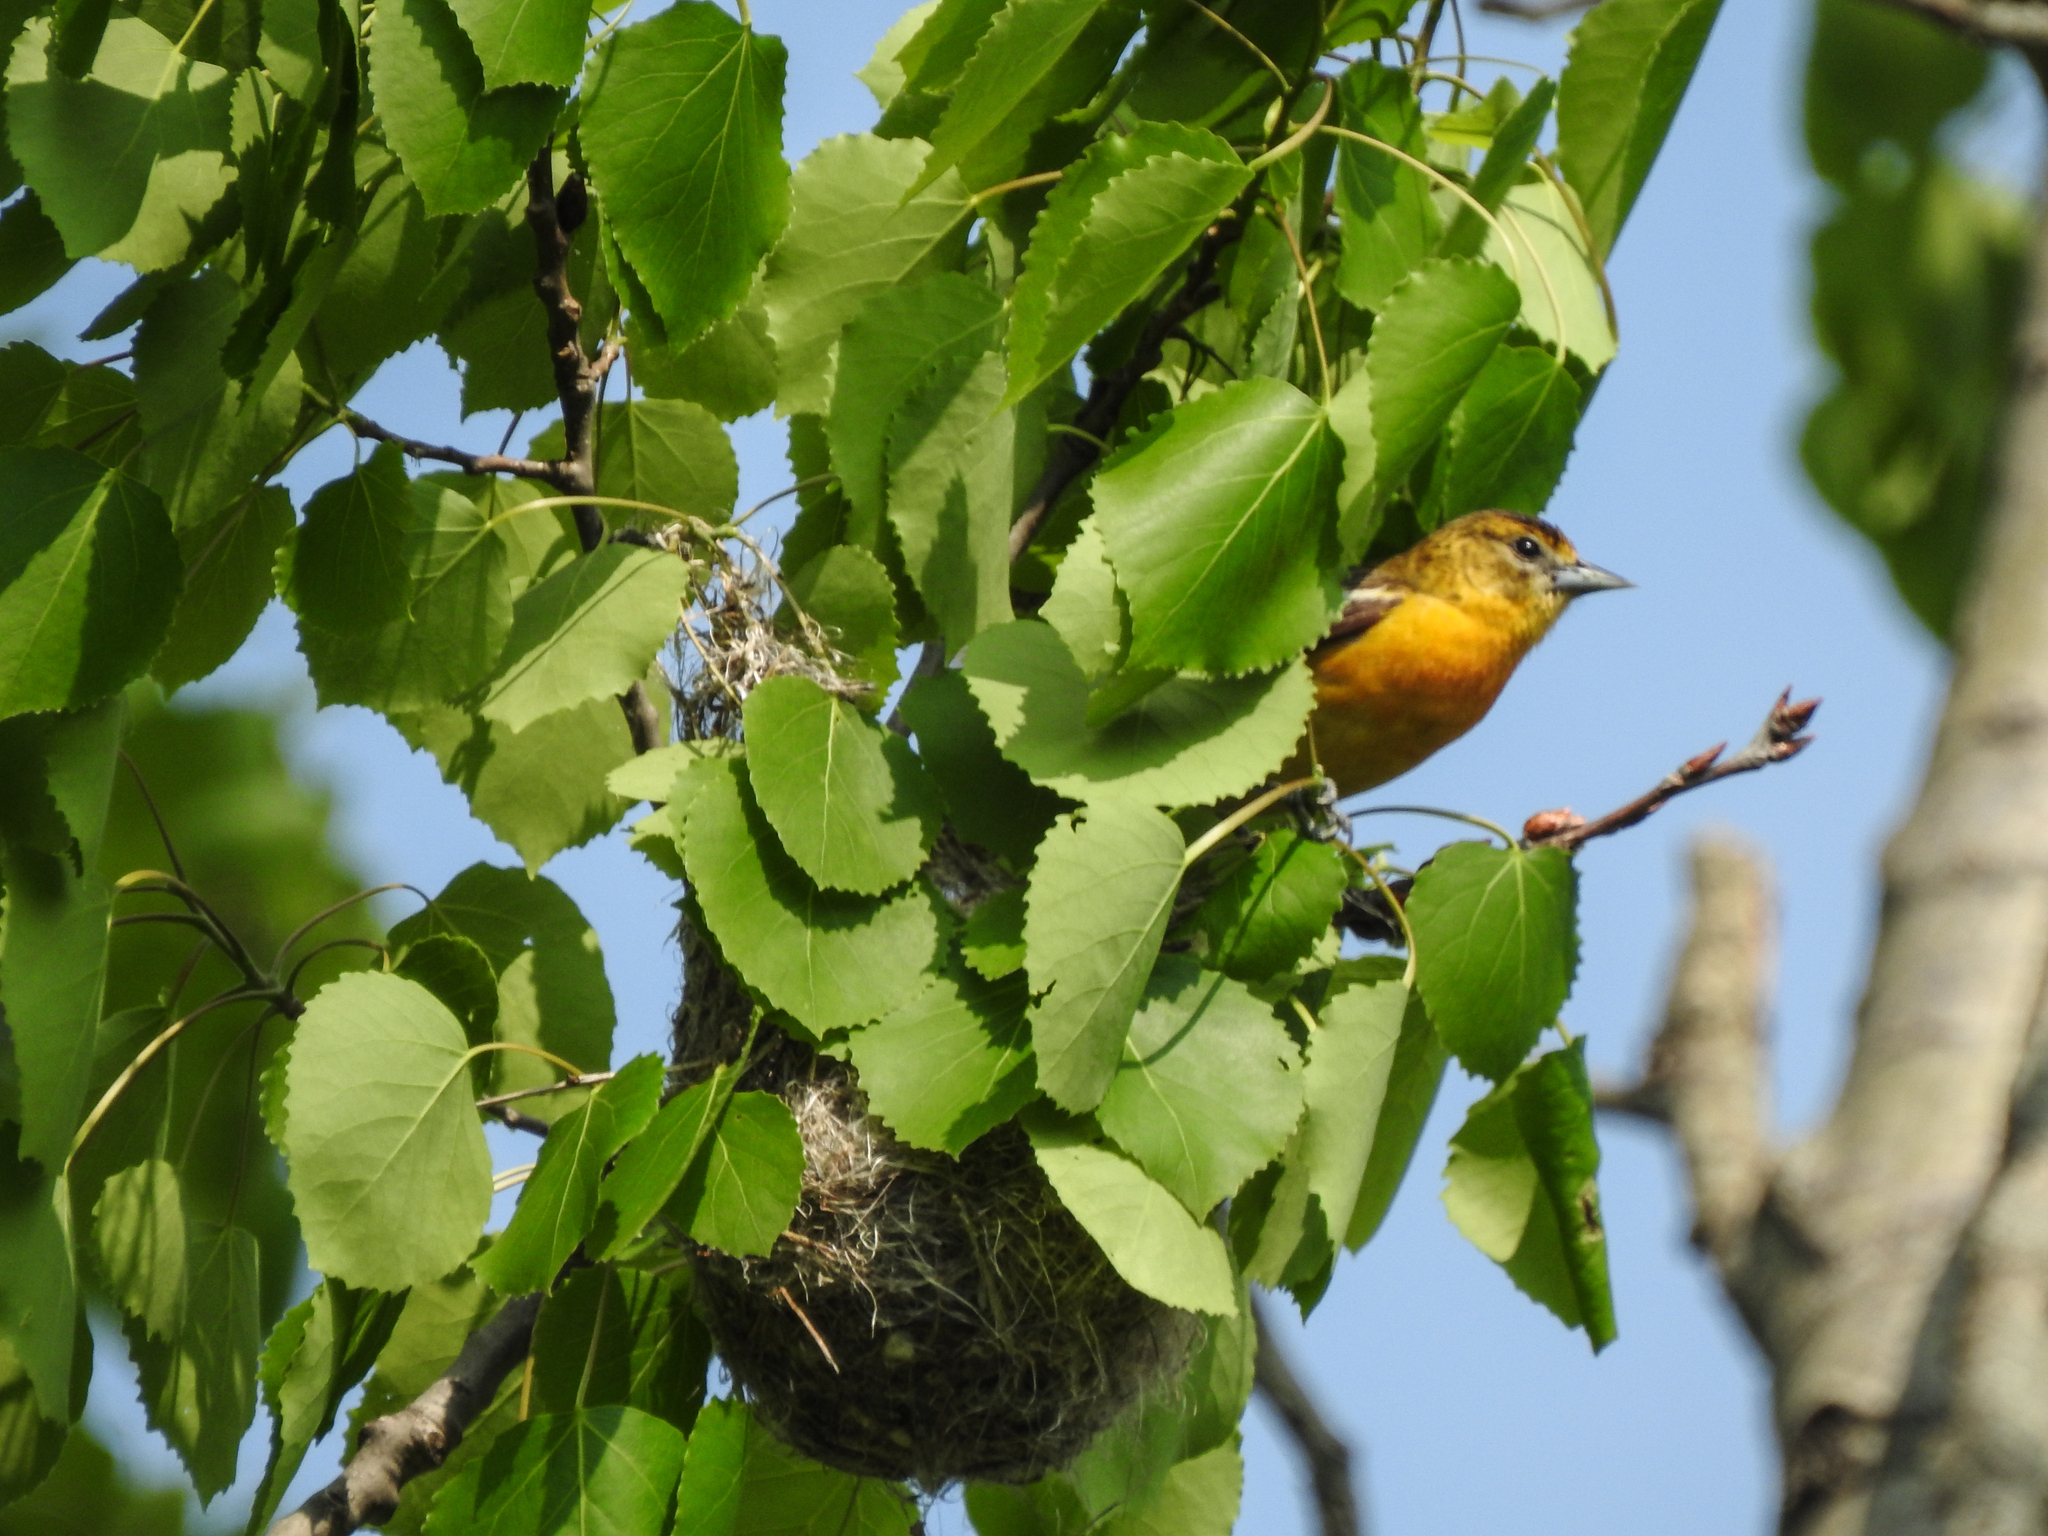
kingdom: Animalia
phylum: Chordata
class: Aves
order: Passeriformes
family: Icteridae
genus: Icterus
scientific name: Icterus galbula
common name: Baltimore oriole
